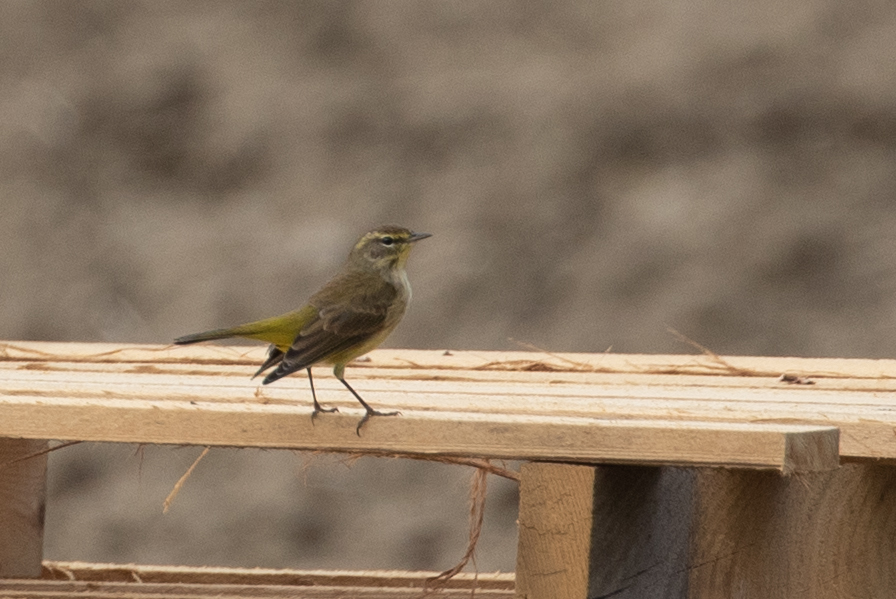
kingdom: Animalia
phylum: Chordata
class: Aves
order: Passeriformes
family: Parulidae
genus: Setophaga
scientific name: Setophaga palmarum
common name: Palm warbler
